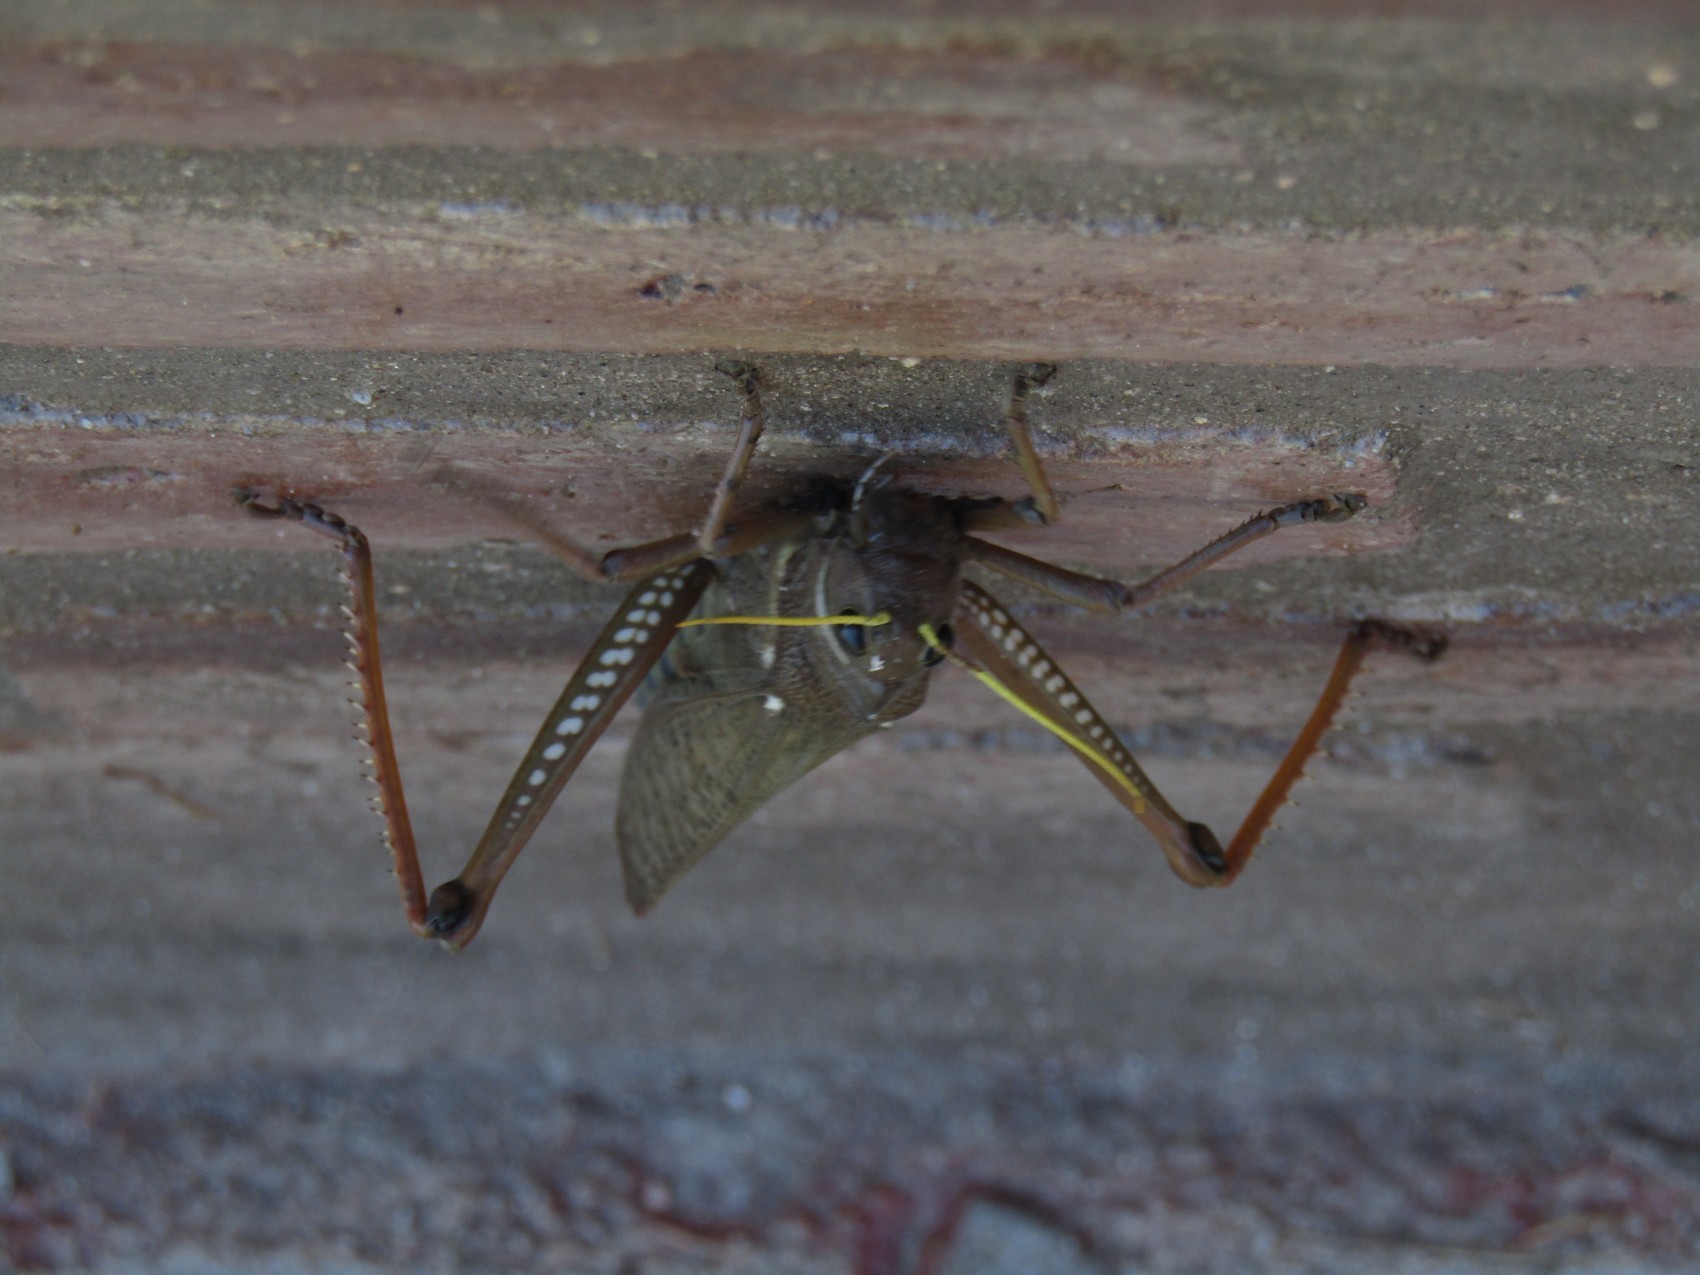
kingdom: Animalia
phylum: Arthropoda
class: Insecta
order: Orthoptera
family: Romaleidae
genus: Tropidacris
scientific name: Tropidacris collaris
